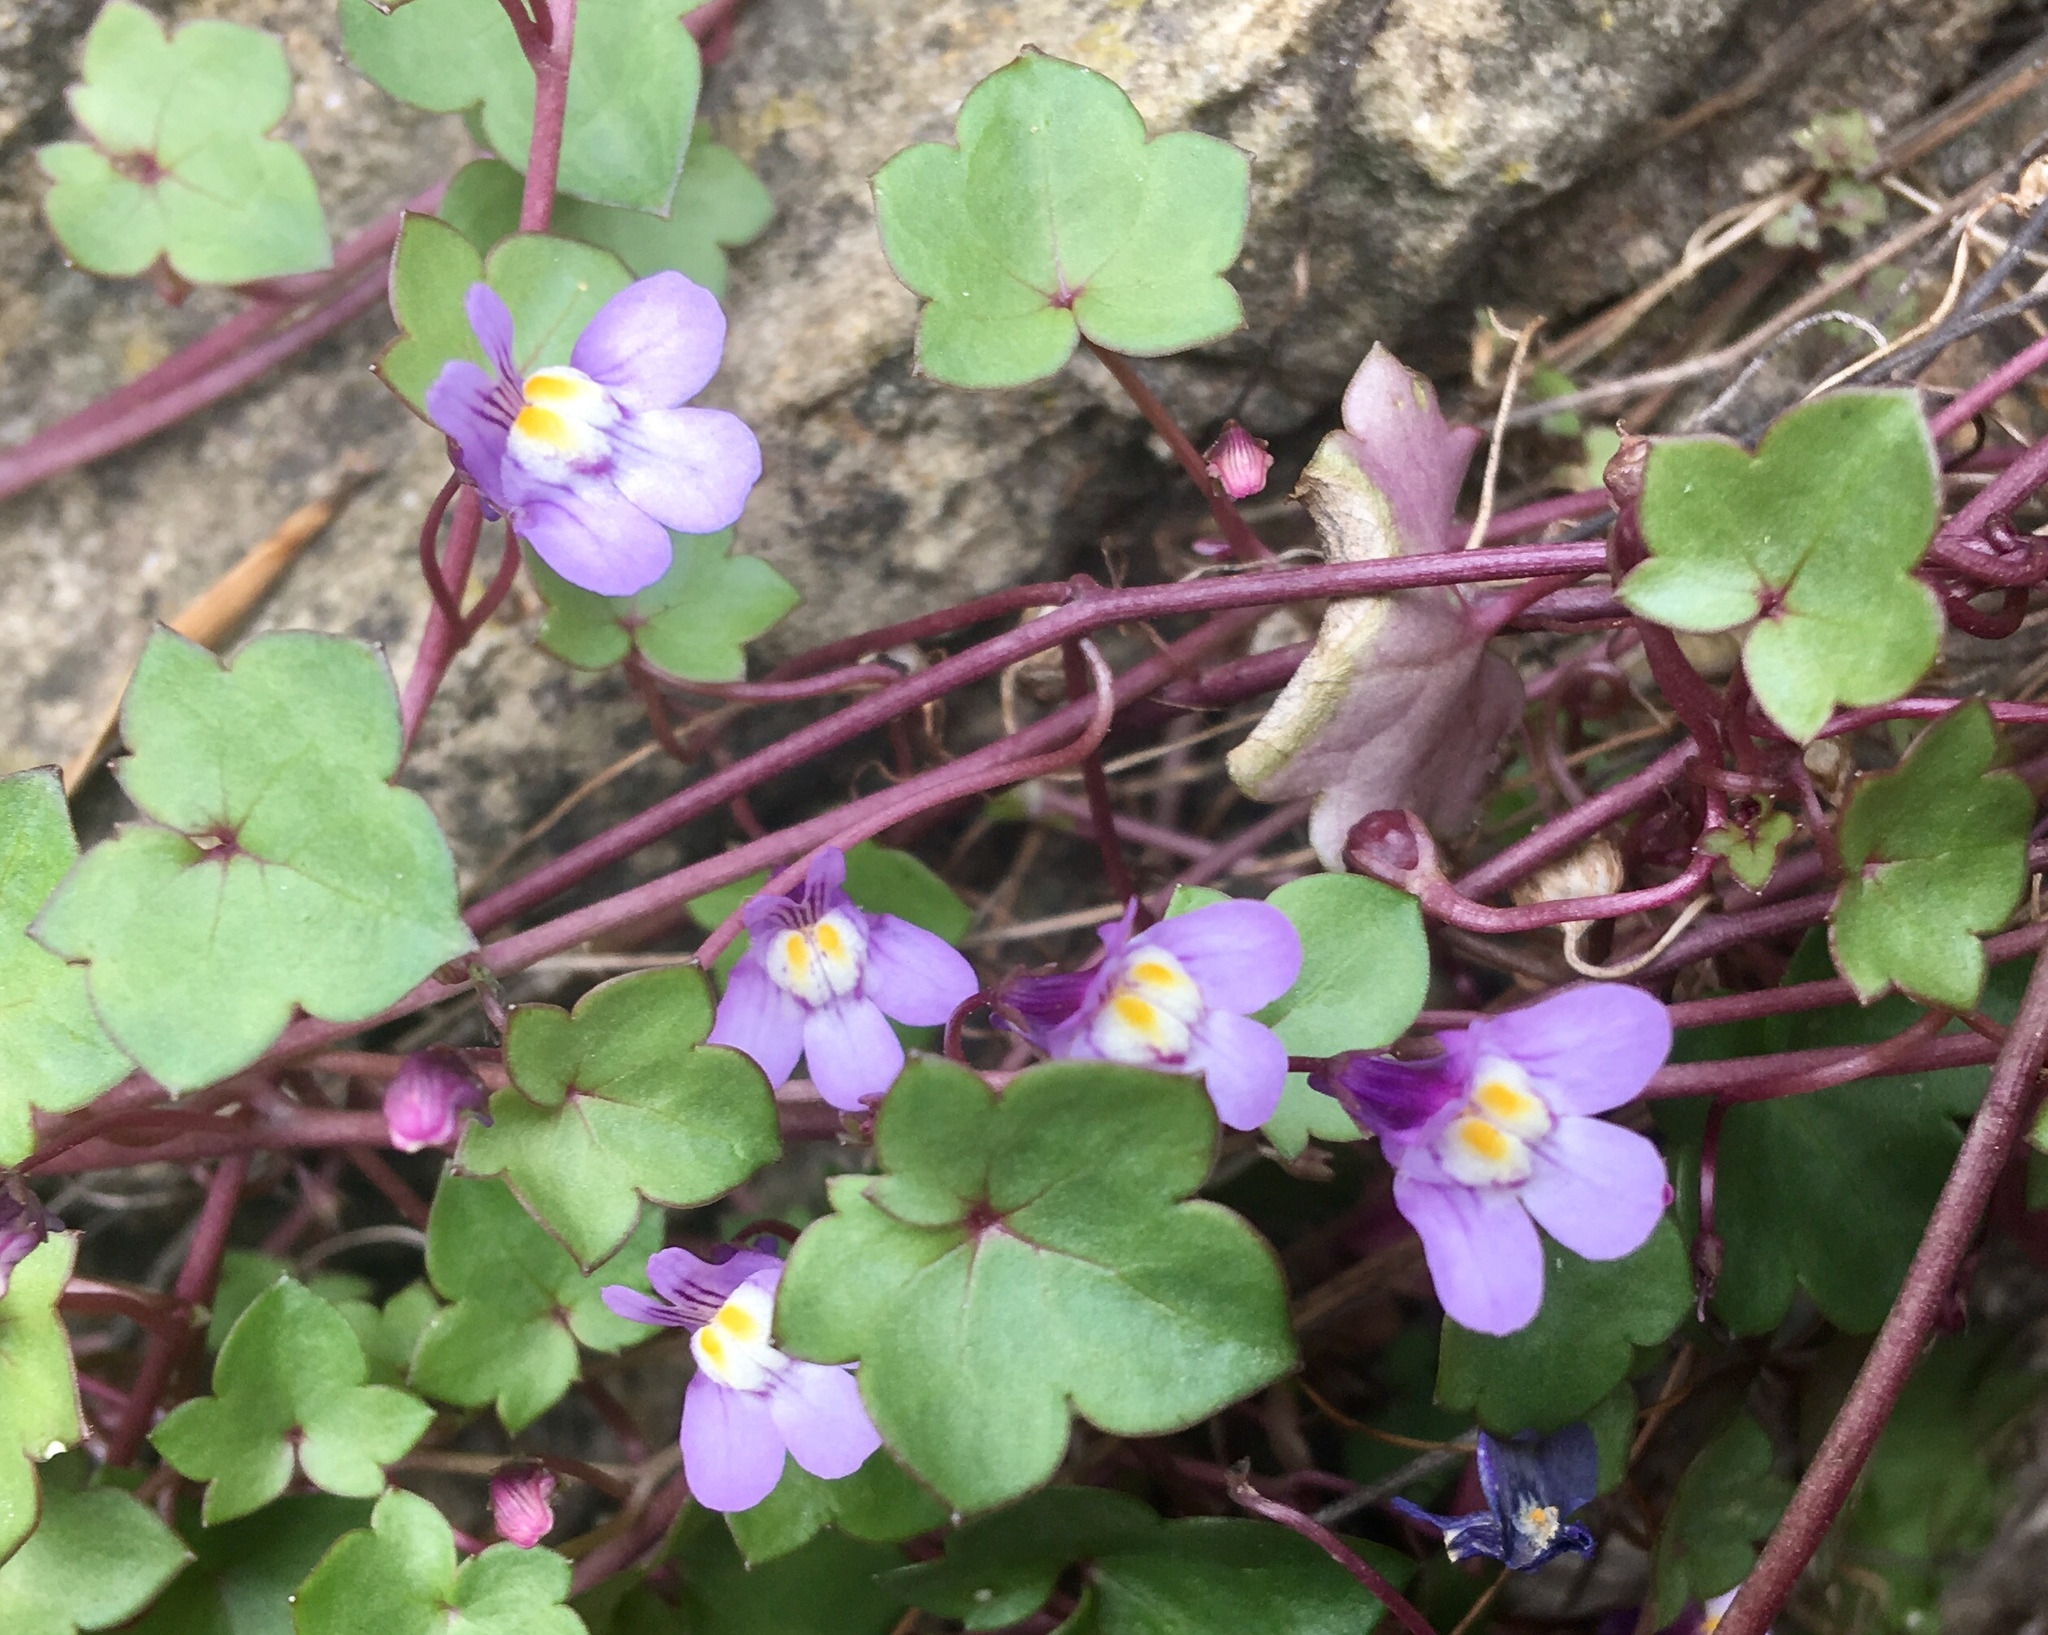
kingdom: Plantae
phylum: Tracheophyta
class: Magnoliopsida
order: Lamiales
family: Plantaginaceae
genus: Cymbalaria
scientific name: Cymbalaria muralis
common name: Ivy-leaved toadflax
